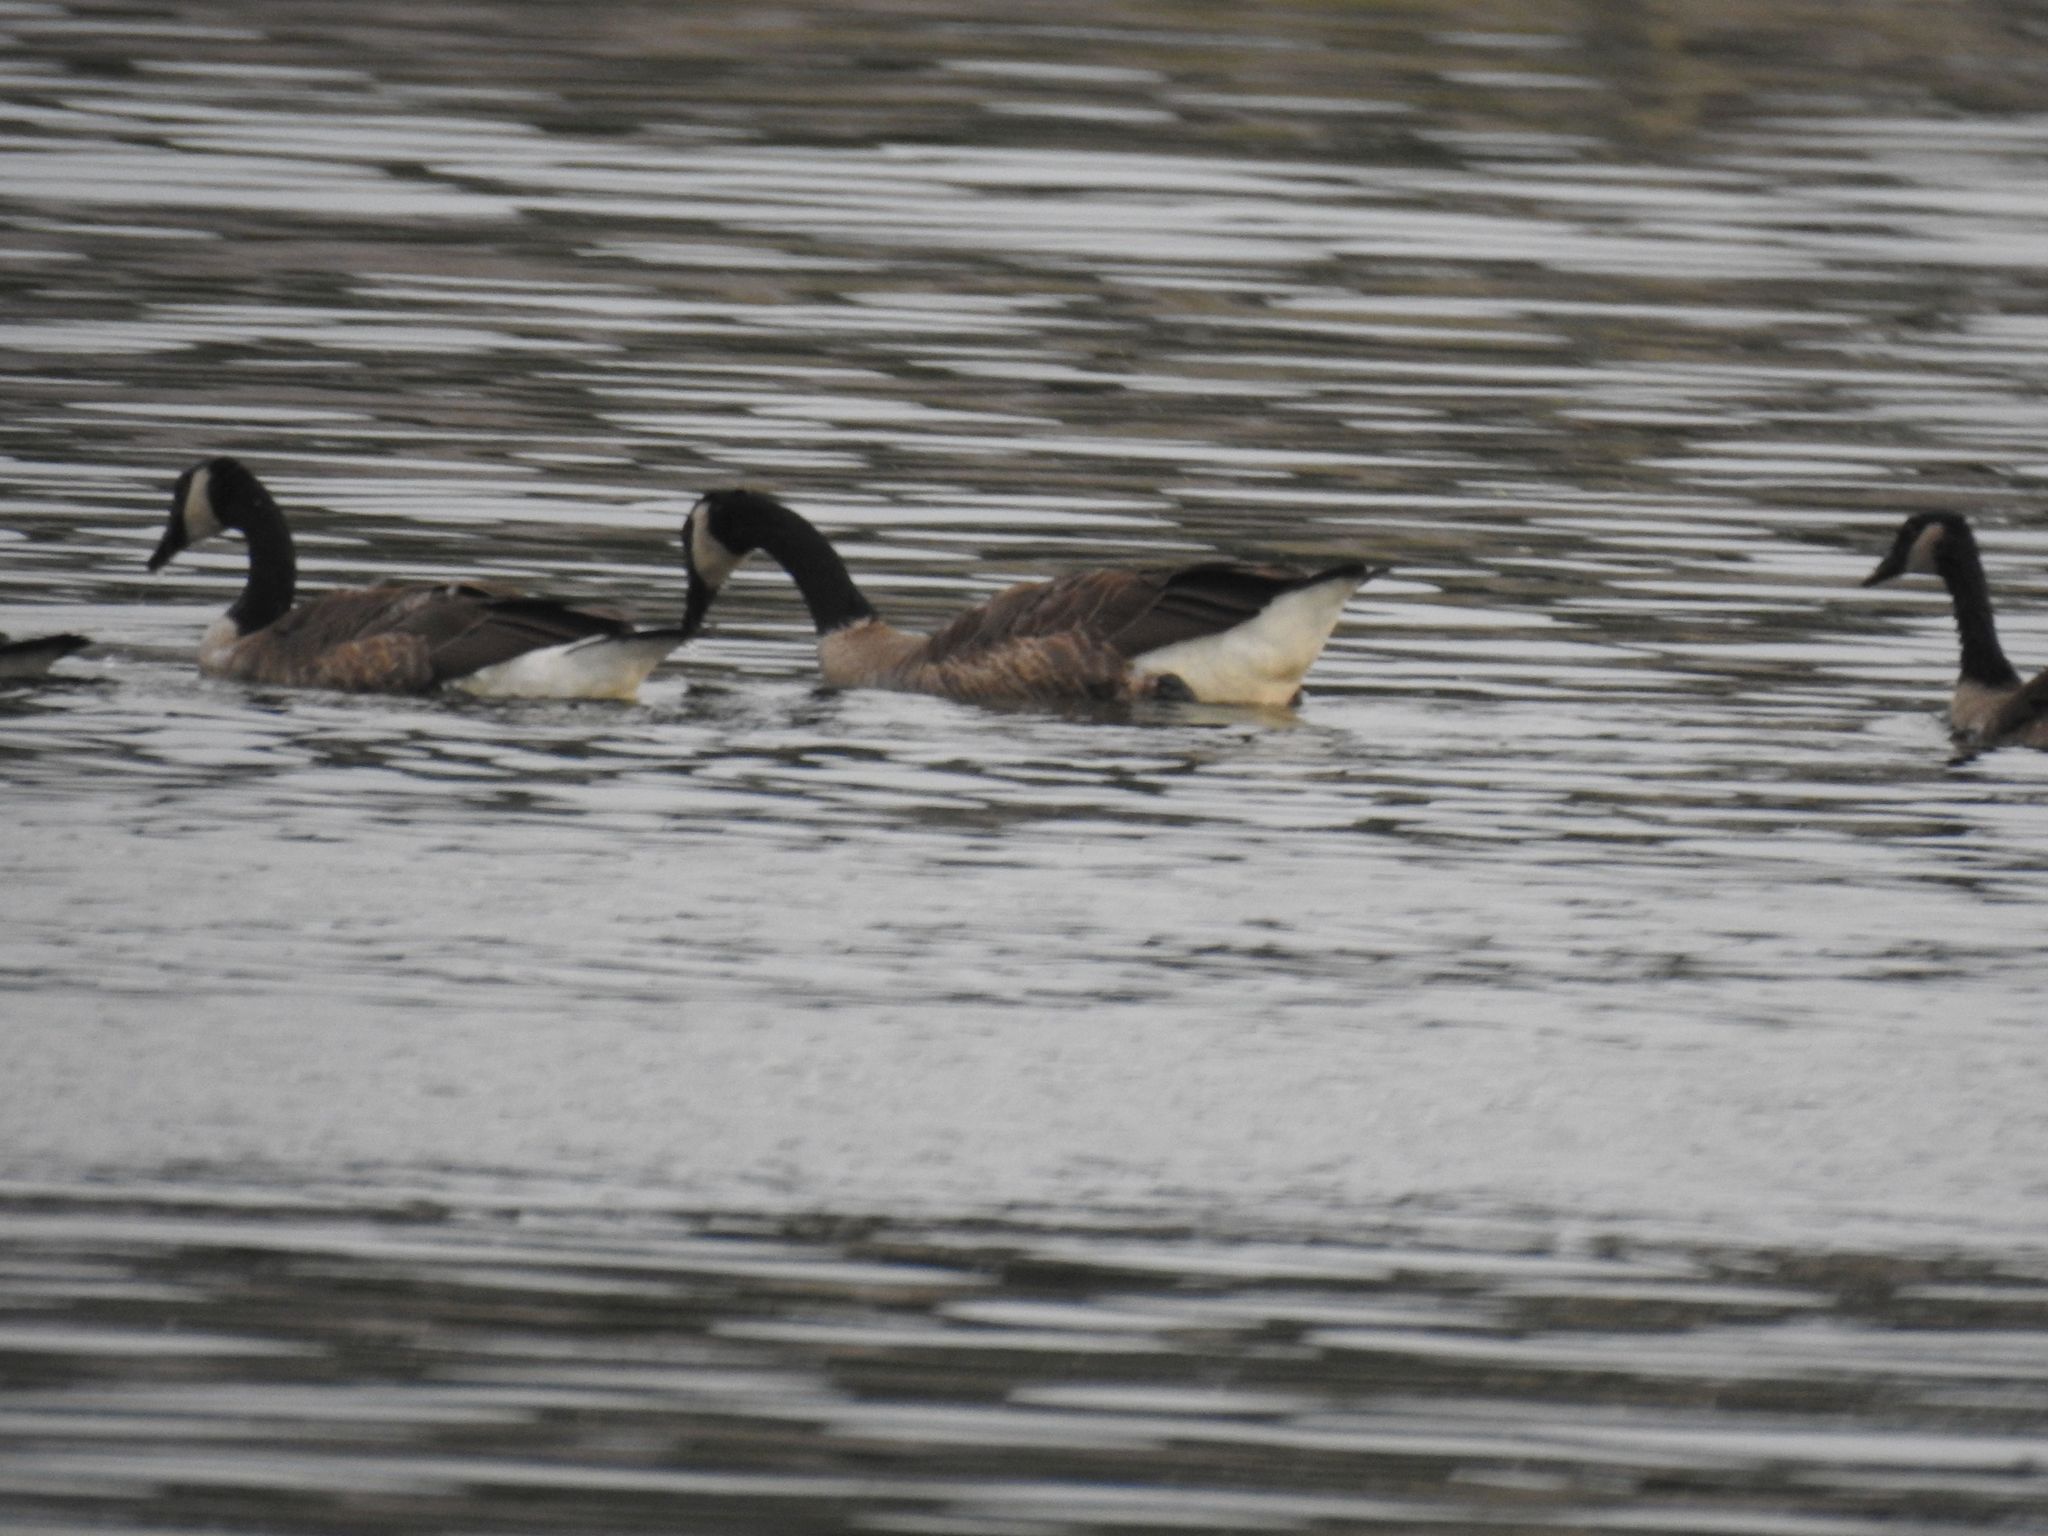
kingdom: Animalia
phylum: Chordata
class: Aves
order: Anseriformes
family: Anatidae
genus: Branta
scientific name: Branta canadensis
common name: Canada goose
